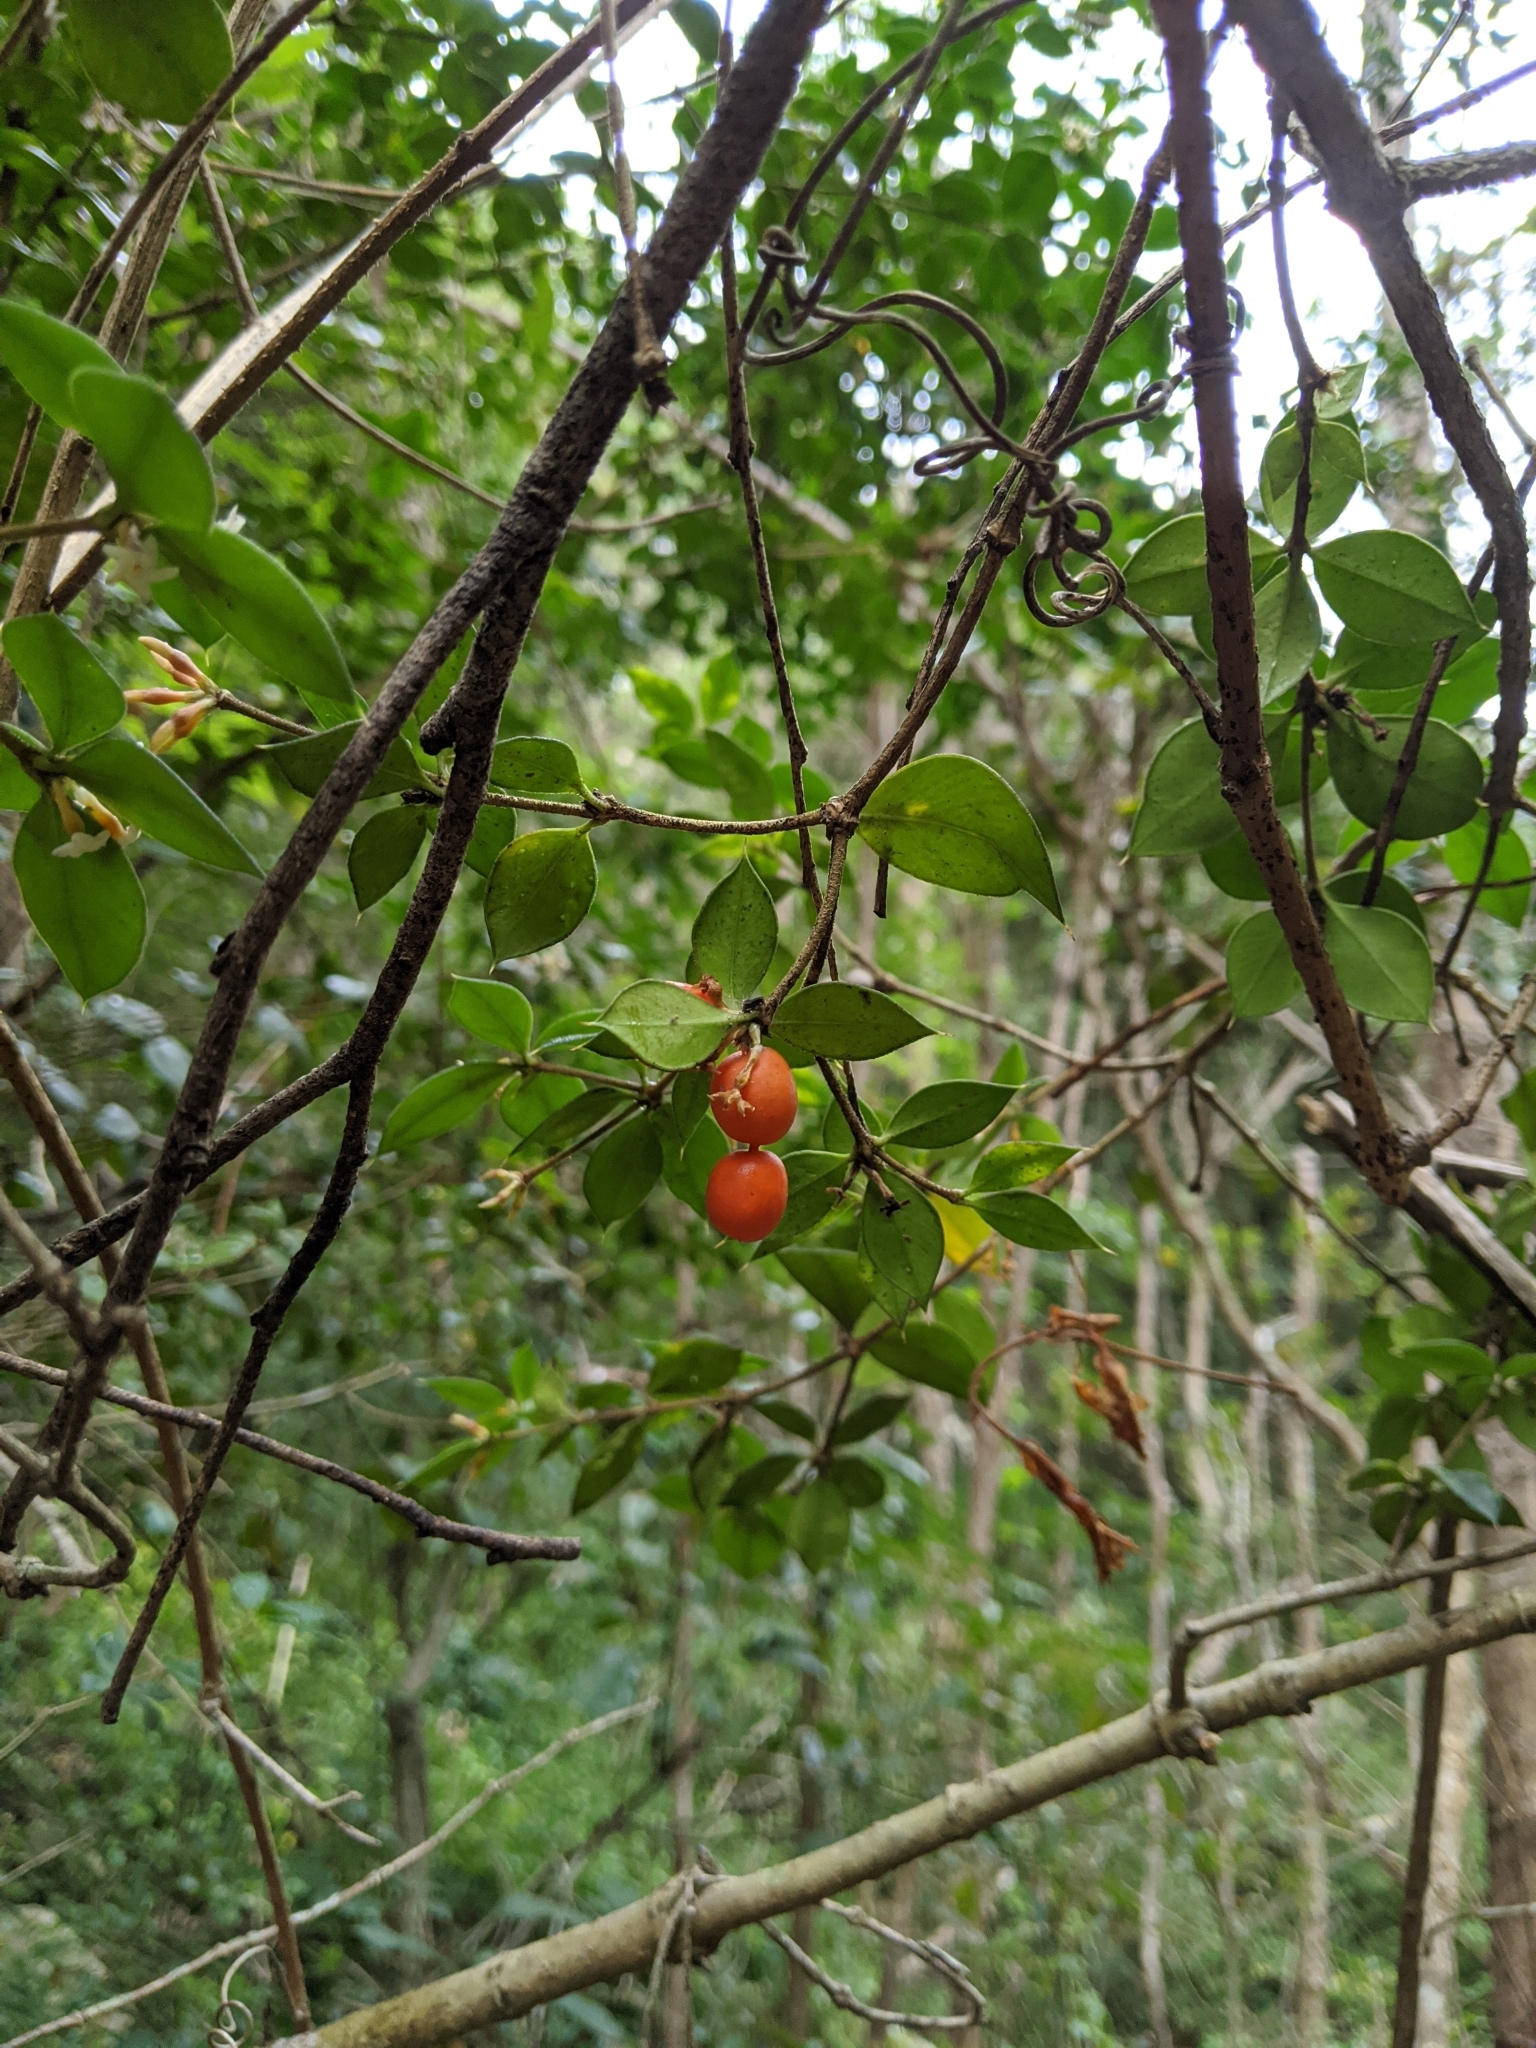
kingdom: Plantae
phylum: Tracheophyta
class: Magnoliopsida
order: Gentianales
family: Apocynaceae
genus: Alyxia
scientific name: Alyxia ruscifolia
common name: Chainfruit
